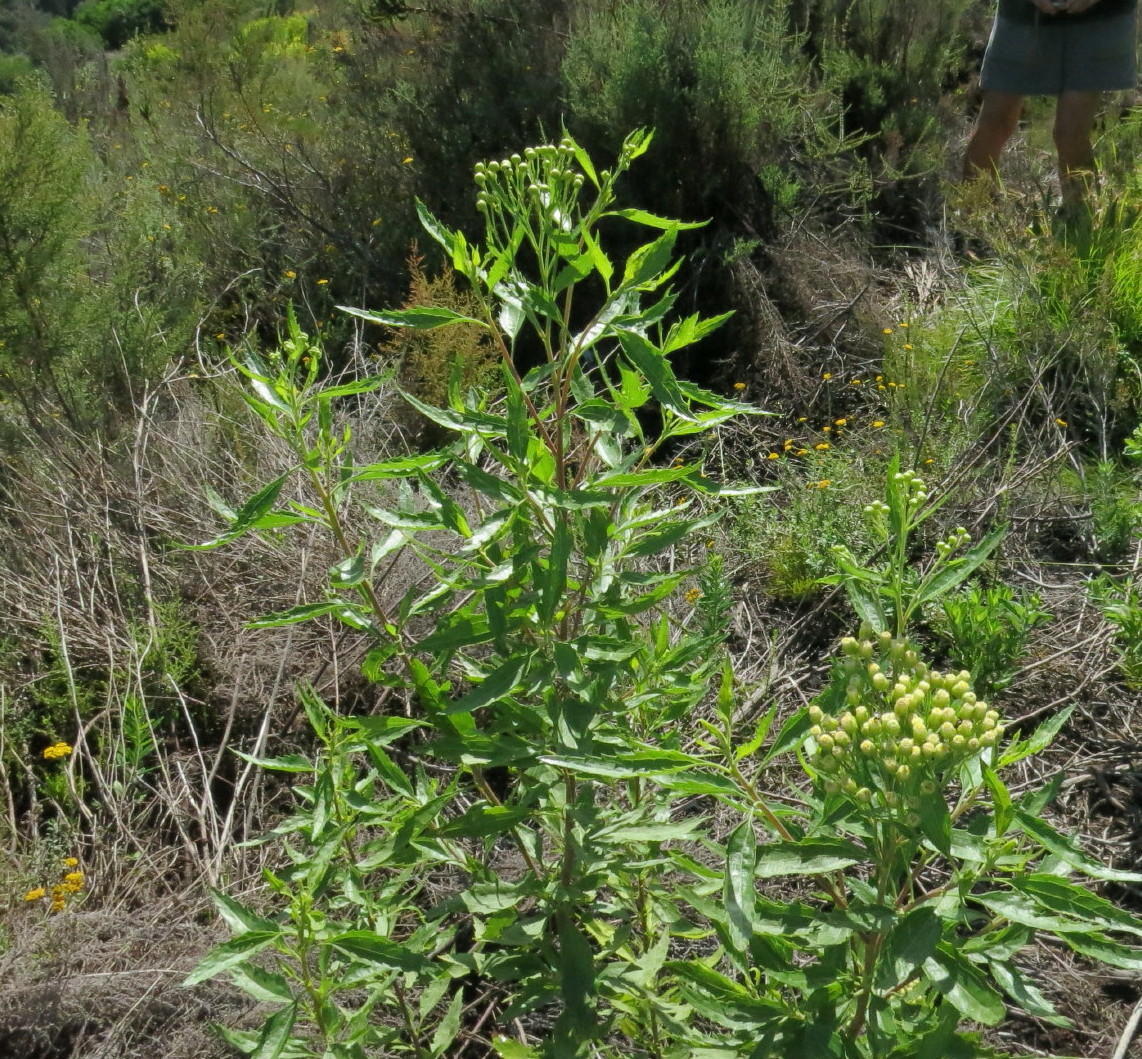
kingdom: Plantae
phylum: Tracheophyta
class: Magnoliopsida
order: Asterales
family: Asteraceae
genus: Nidorella
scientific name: Nidorella ivifolia
